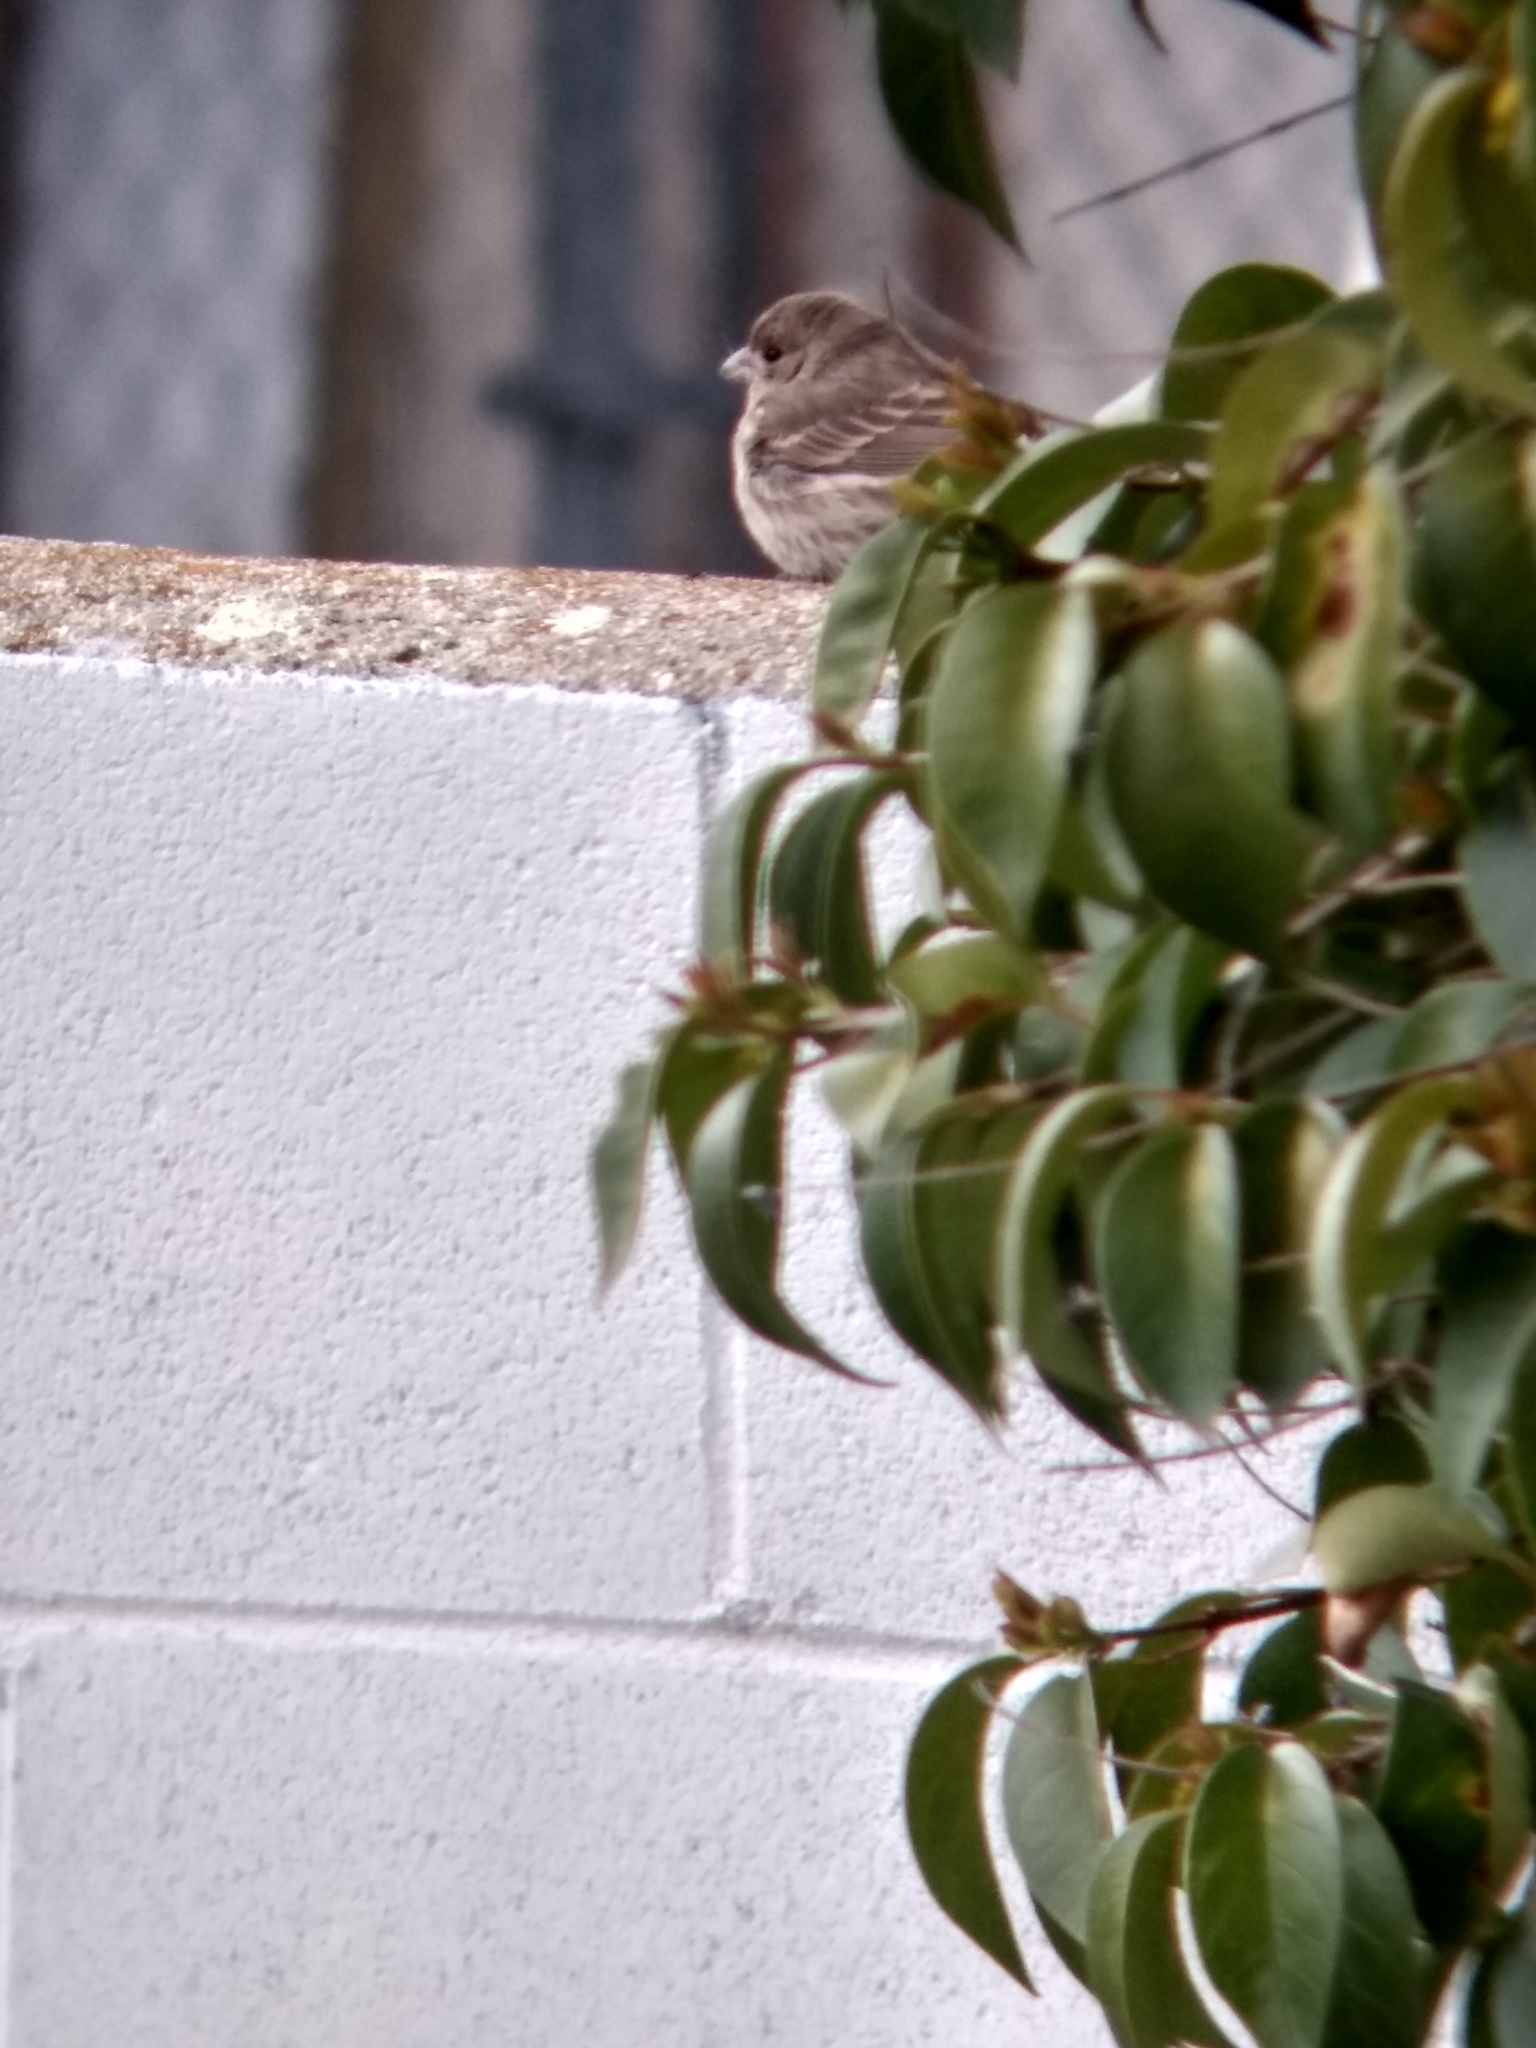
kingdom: Animalia
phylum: Chordata
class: Aves
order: Passeriformes
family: Fringillidae
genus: Haemorhous
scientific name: Haemorhous mexicanus
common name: House finch
